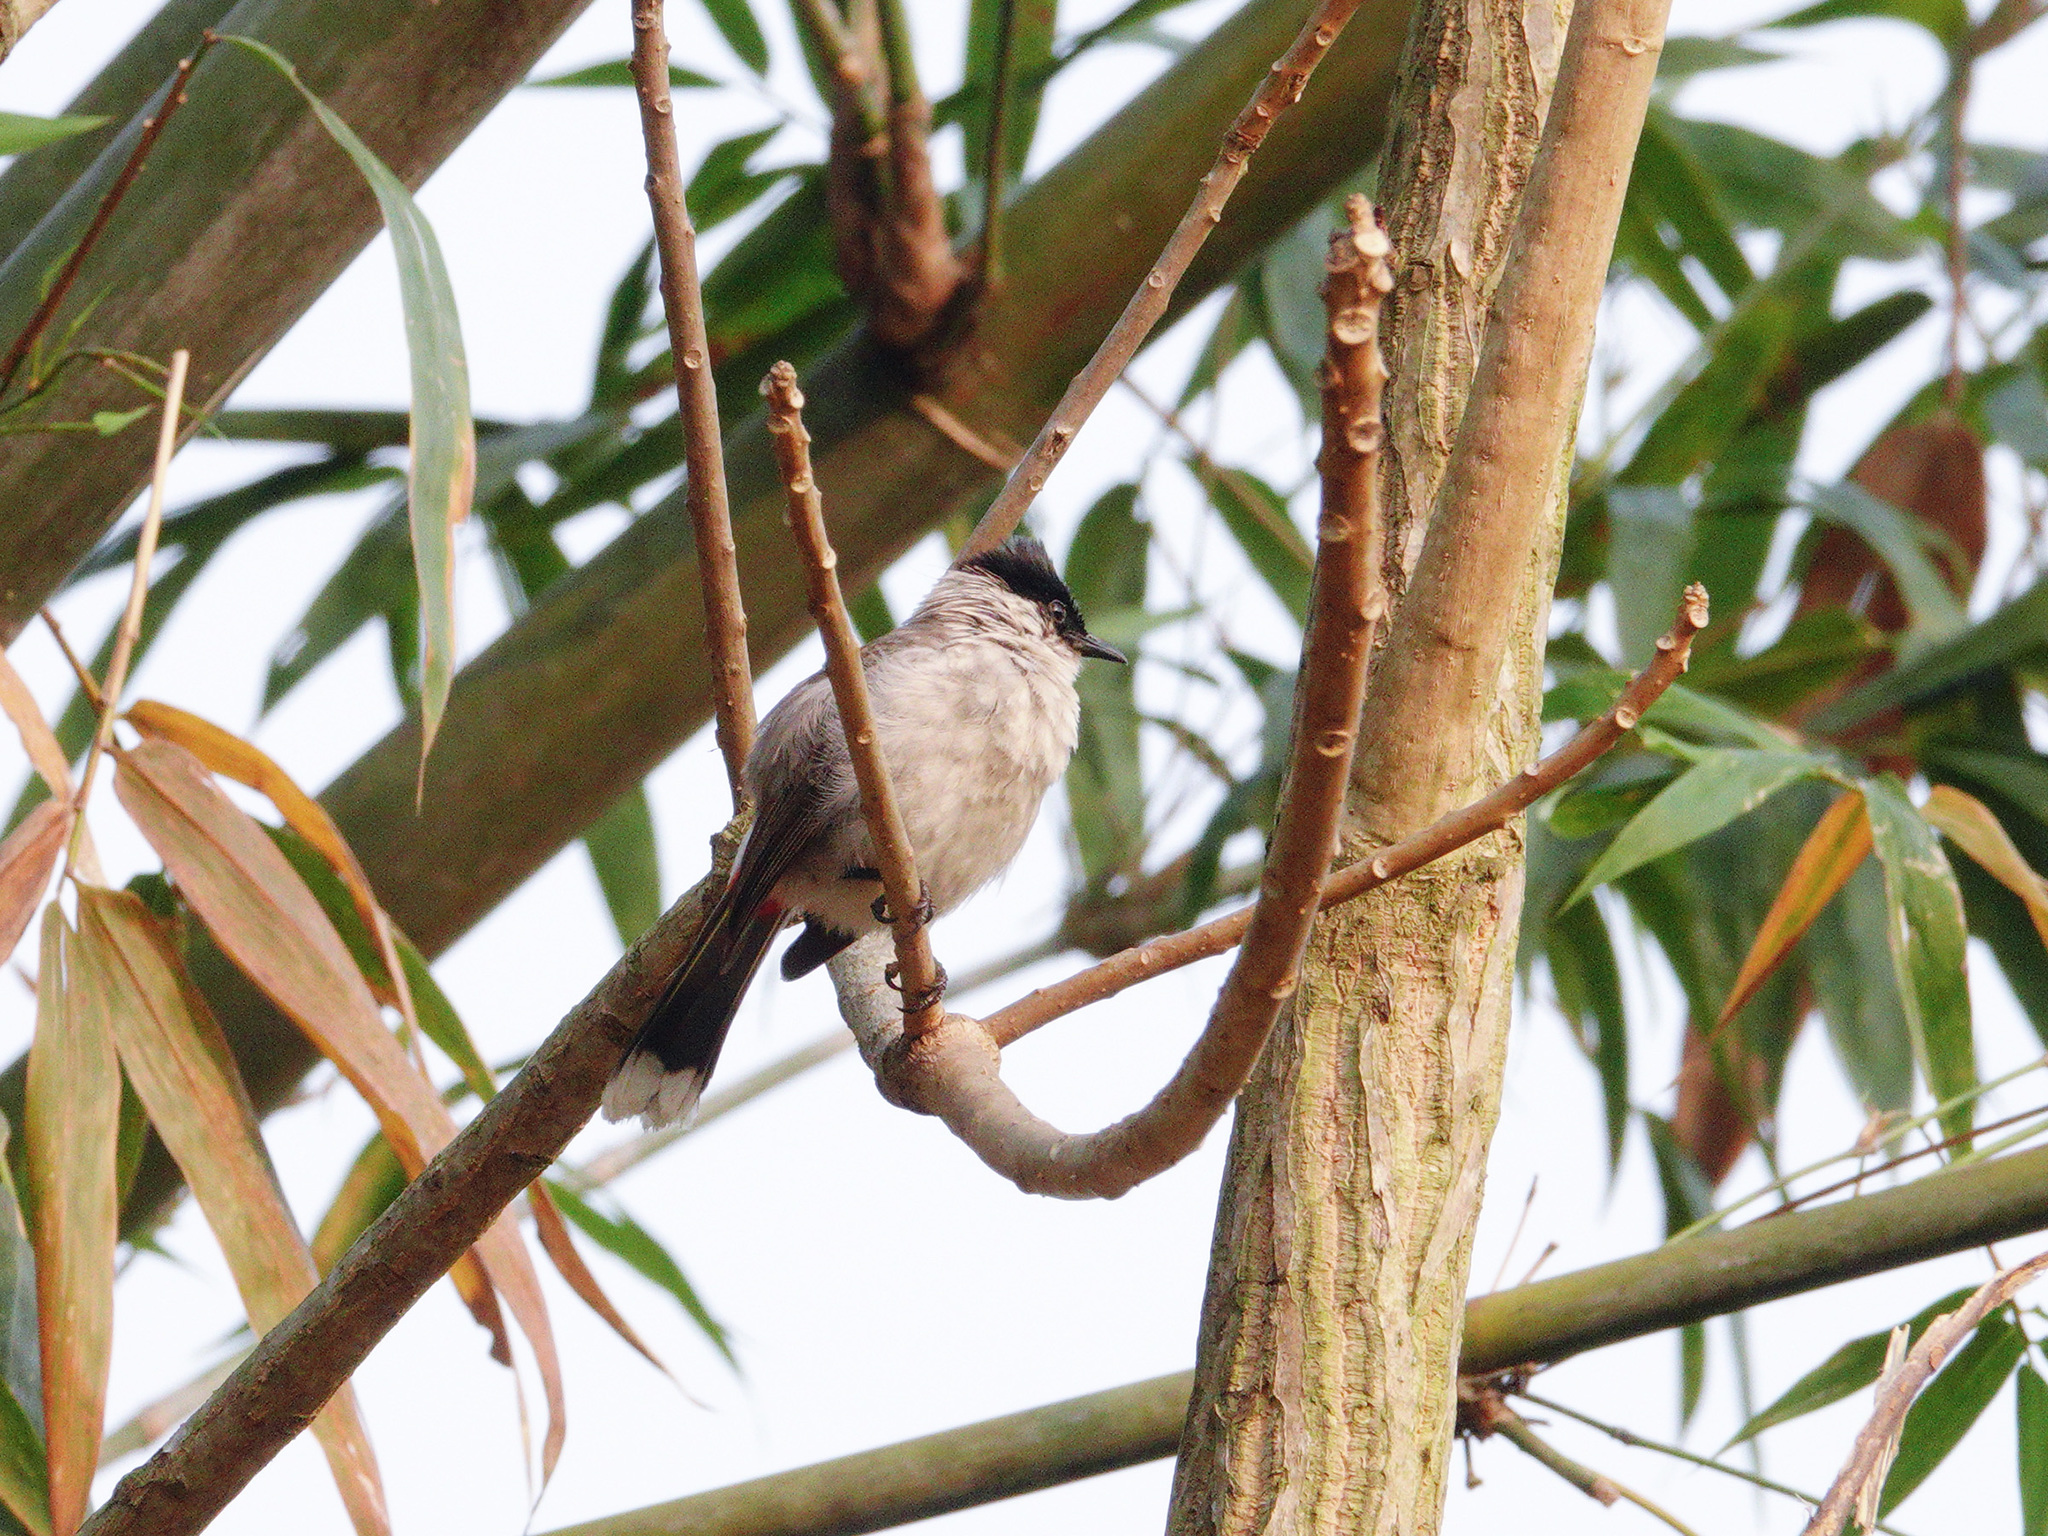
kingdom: Animalia
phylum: Chordata
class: Aves
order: Passeriformes
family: Pycnonotidae
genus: Pycnonotus
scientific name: Pycnonotus aurigaster
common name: Sooty-headed bulbul
